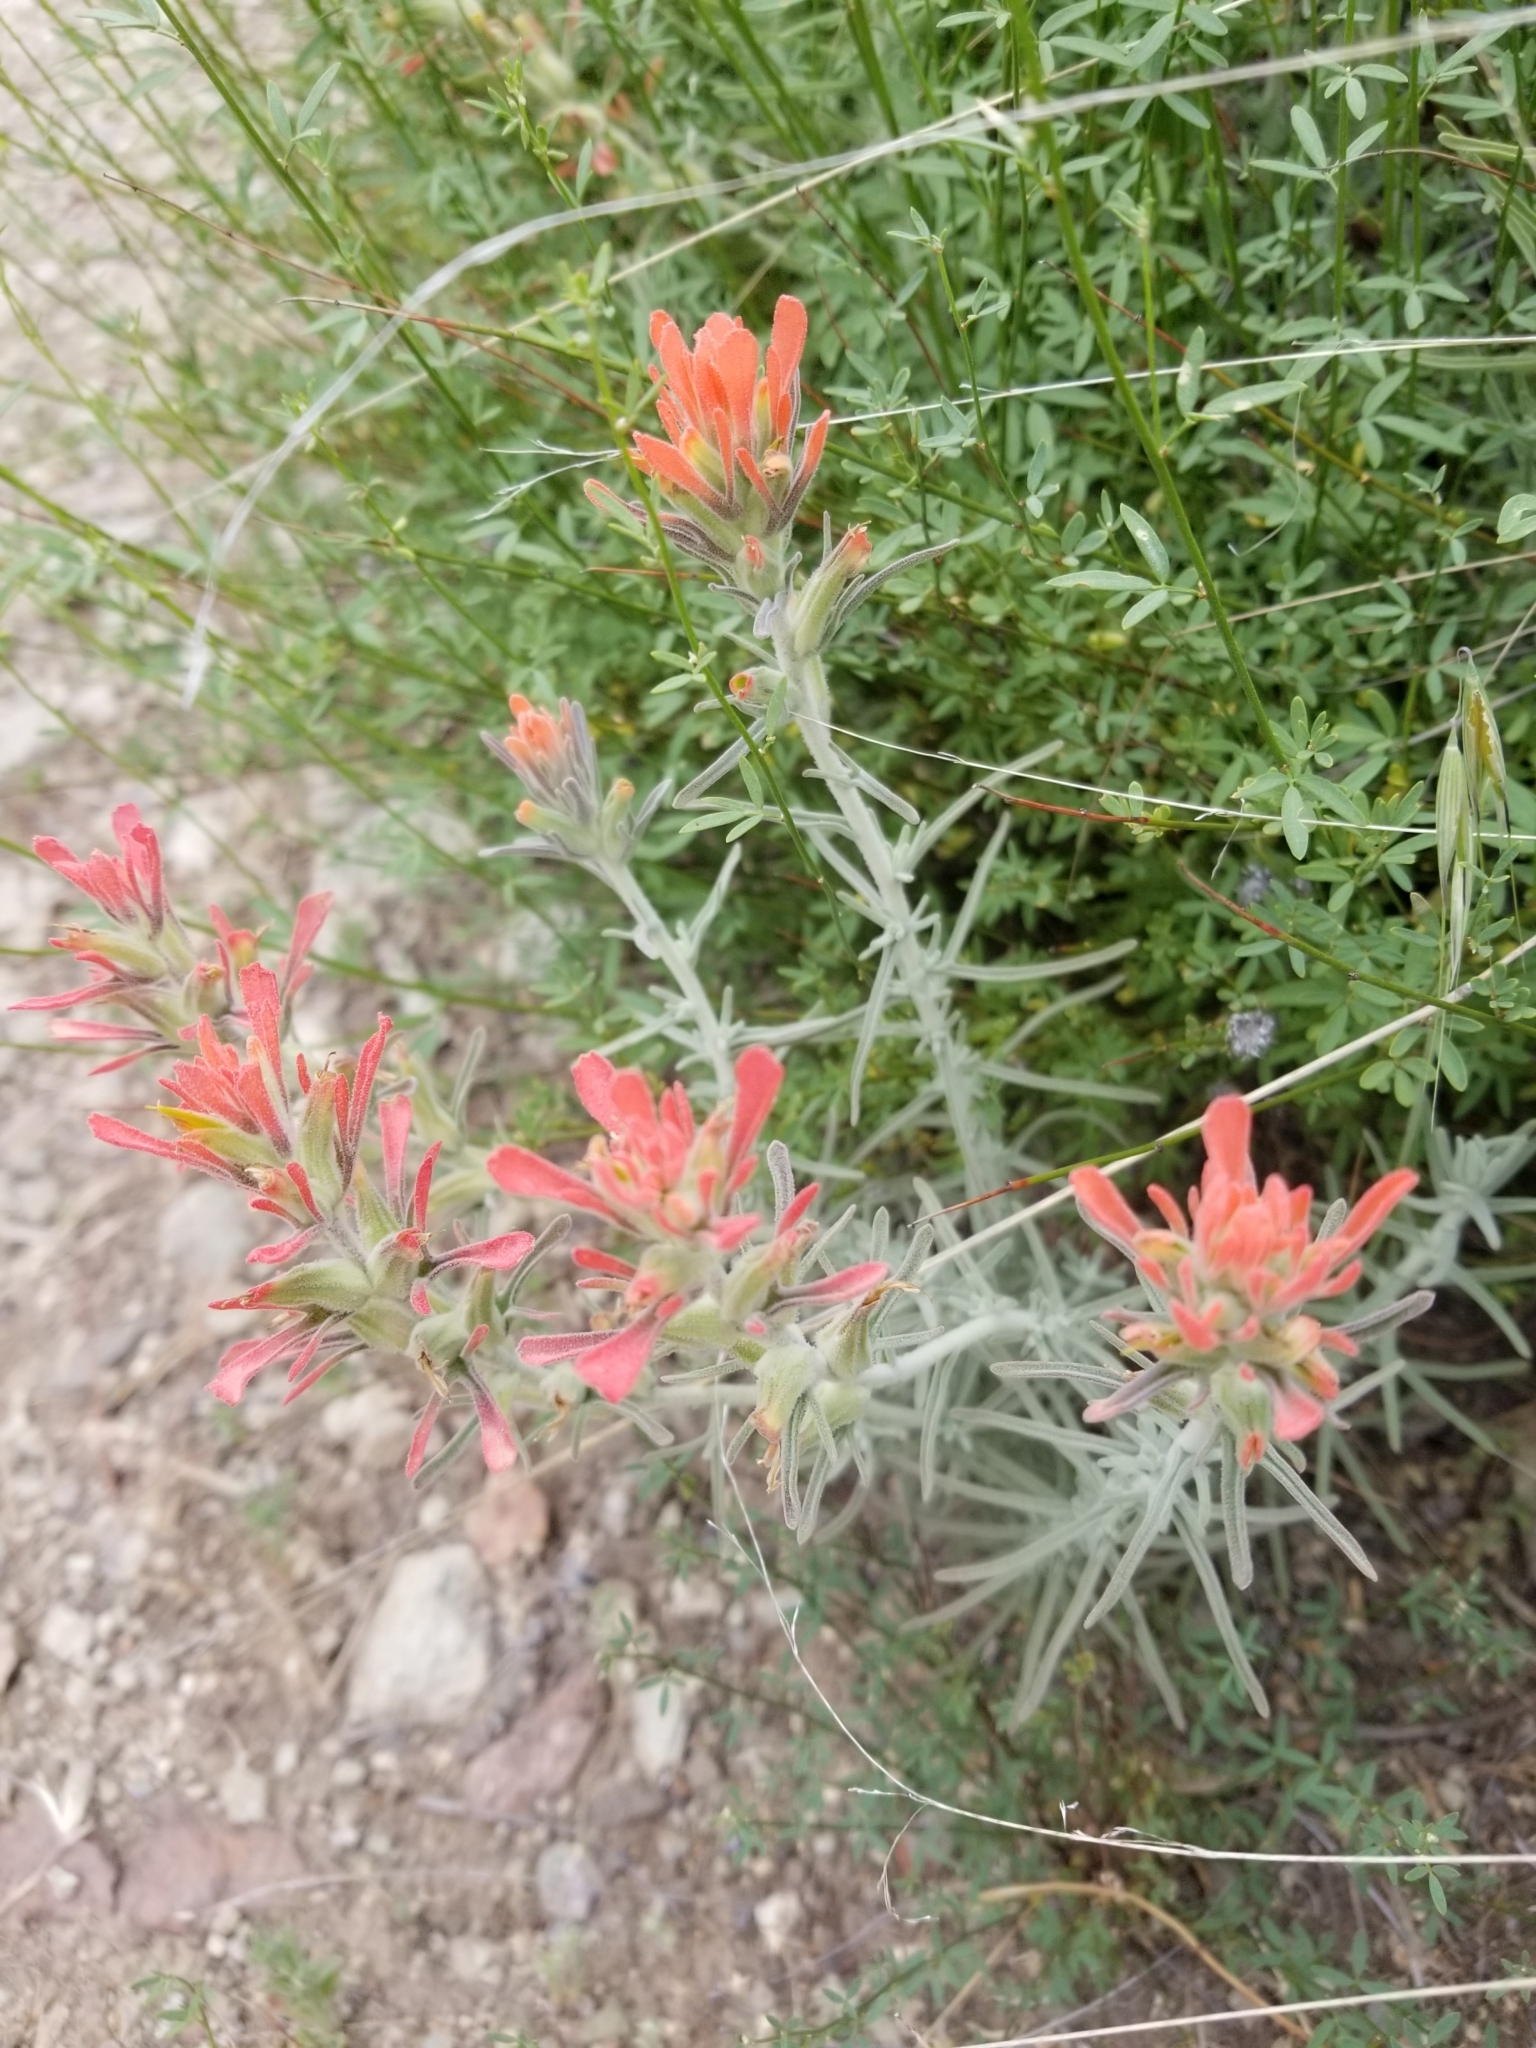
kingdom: Plantae
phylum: Tracheophyta
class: Magnoliopsida
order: Lamiales
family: Orobanchaceae
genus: Castilleja
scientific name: Castilleja foliolosa
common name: Woolly indian paintbrush
